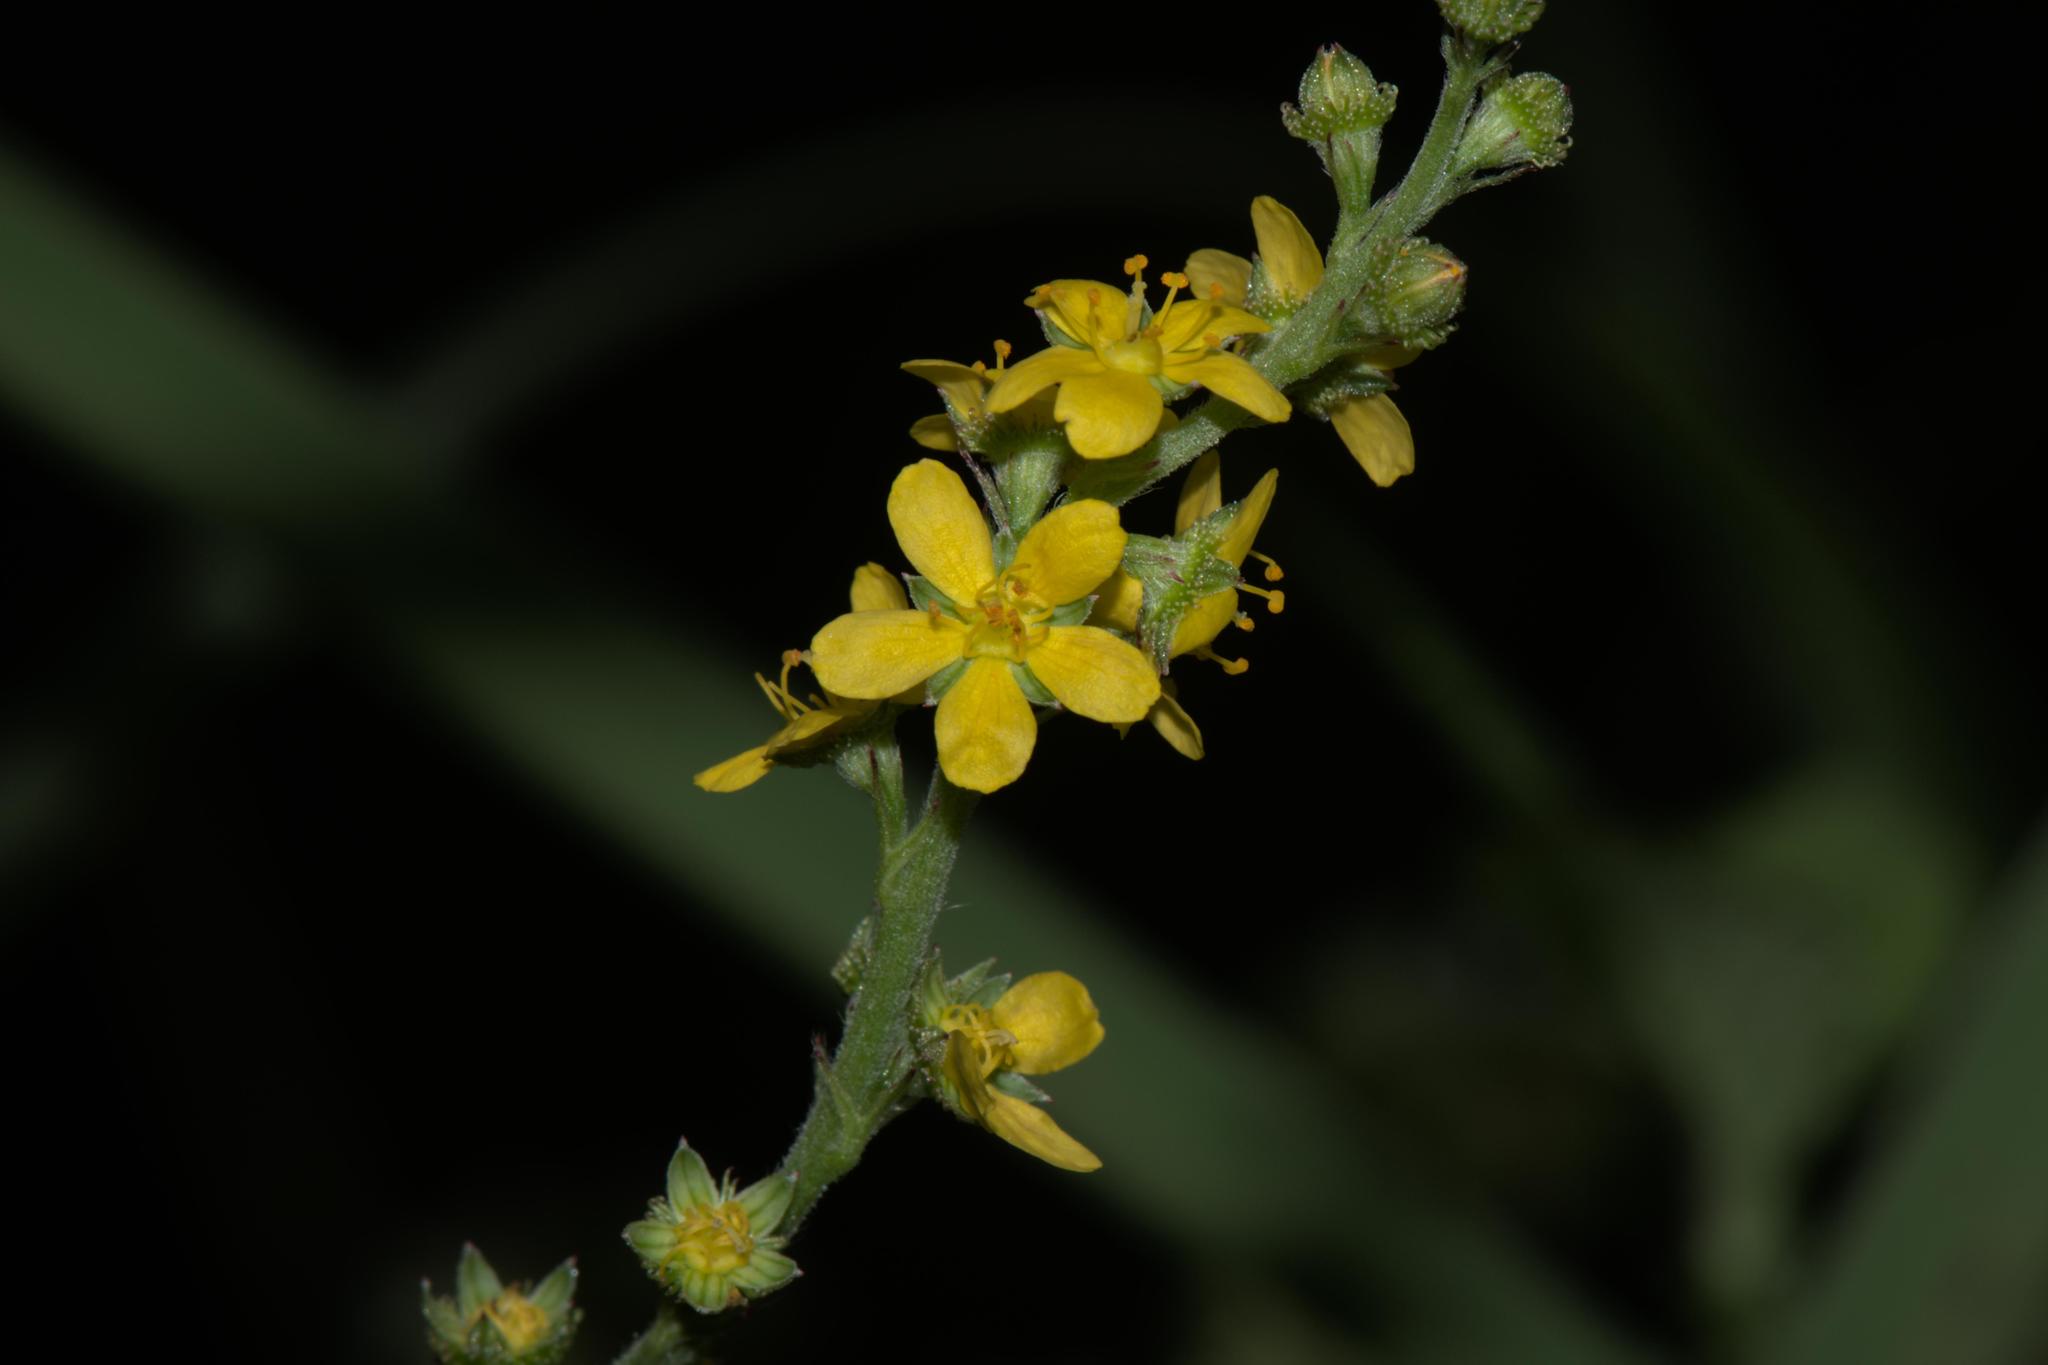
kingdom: Plantae
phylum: Tracheophyta
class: Magnoliopsida
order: Rosales
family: Rosaceae
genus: Agrimonia
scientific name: Agrimonia pilosa
